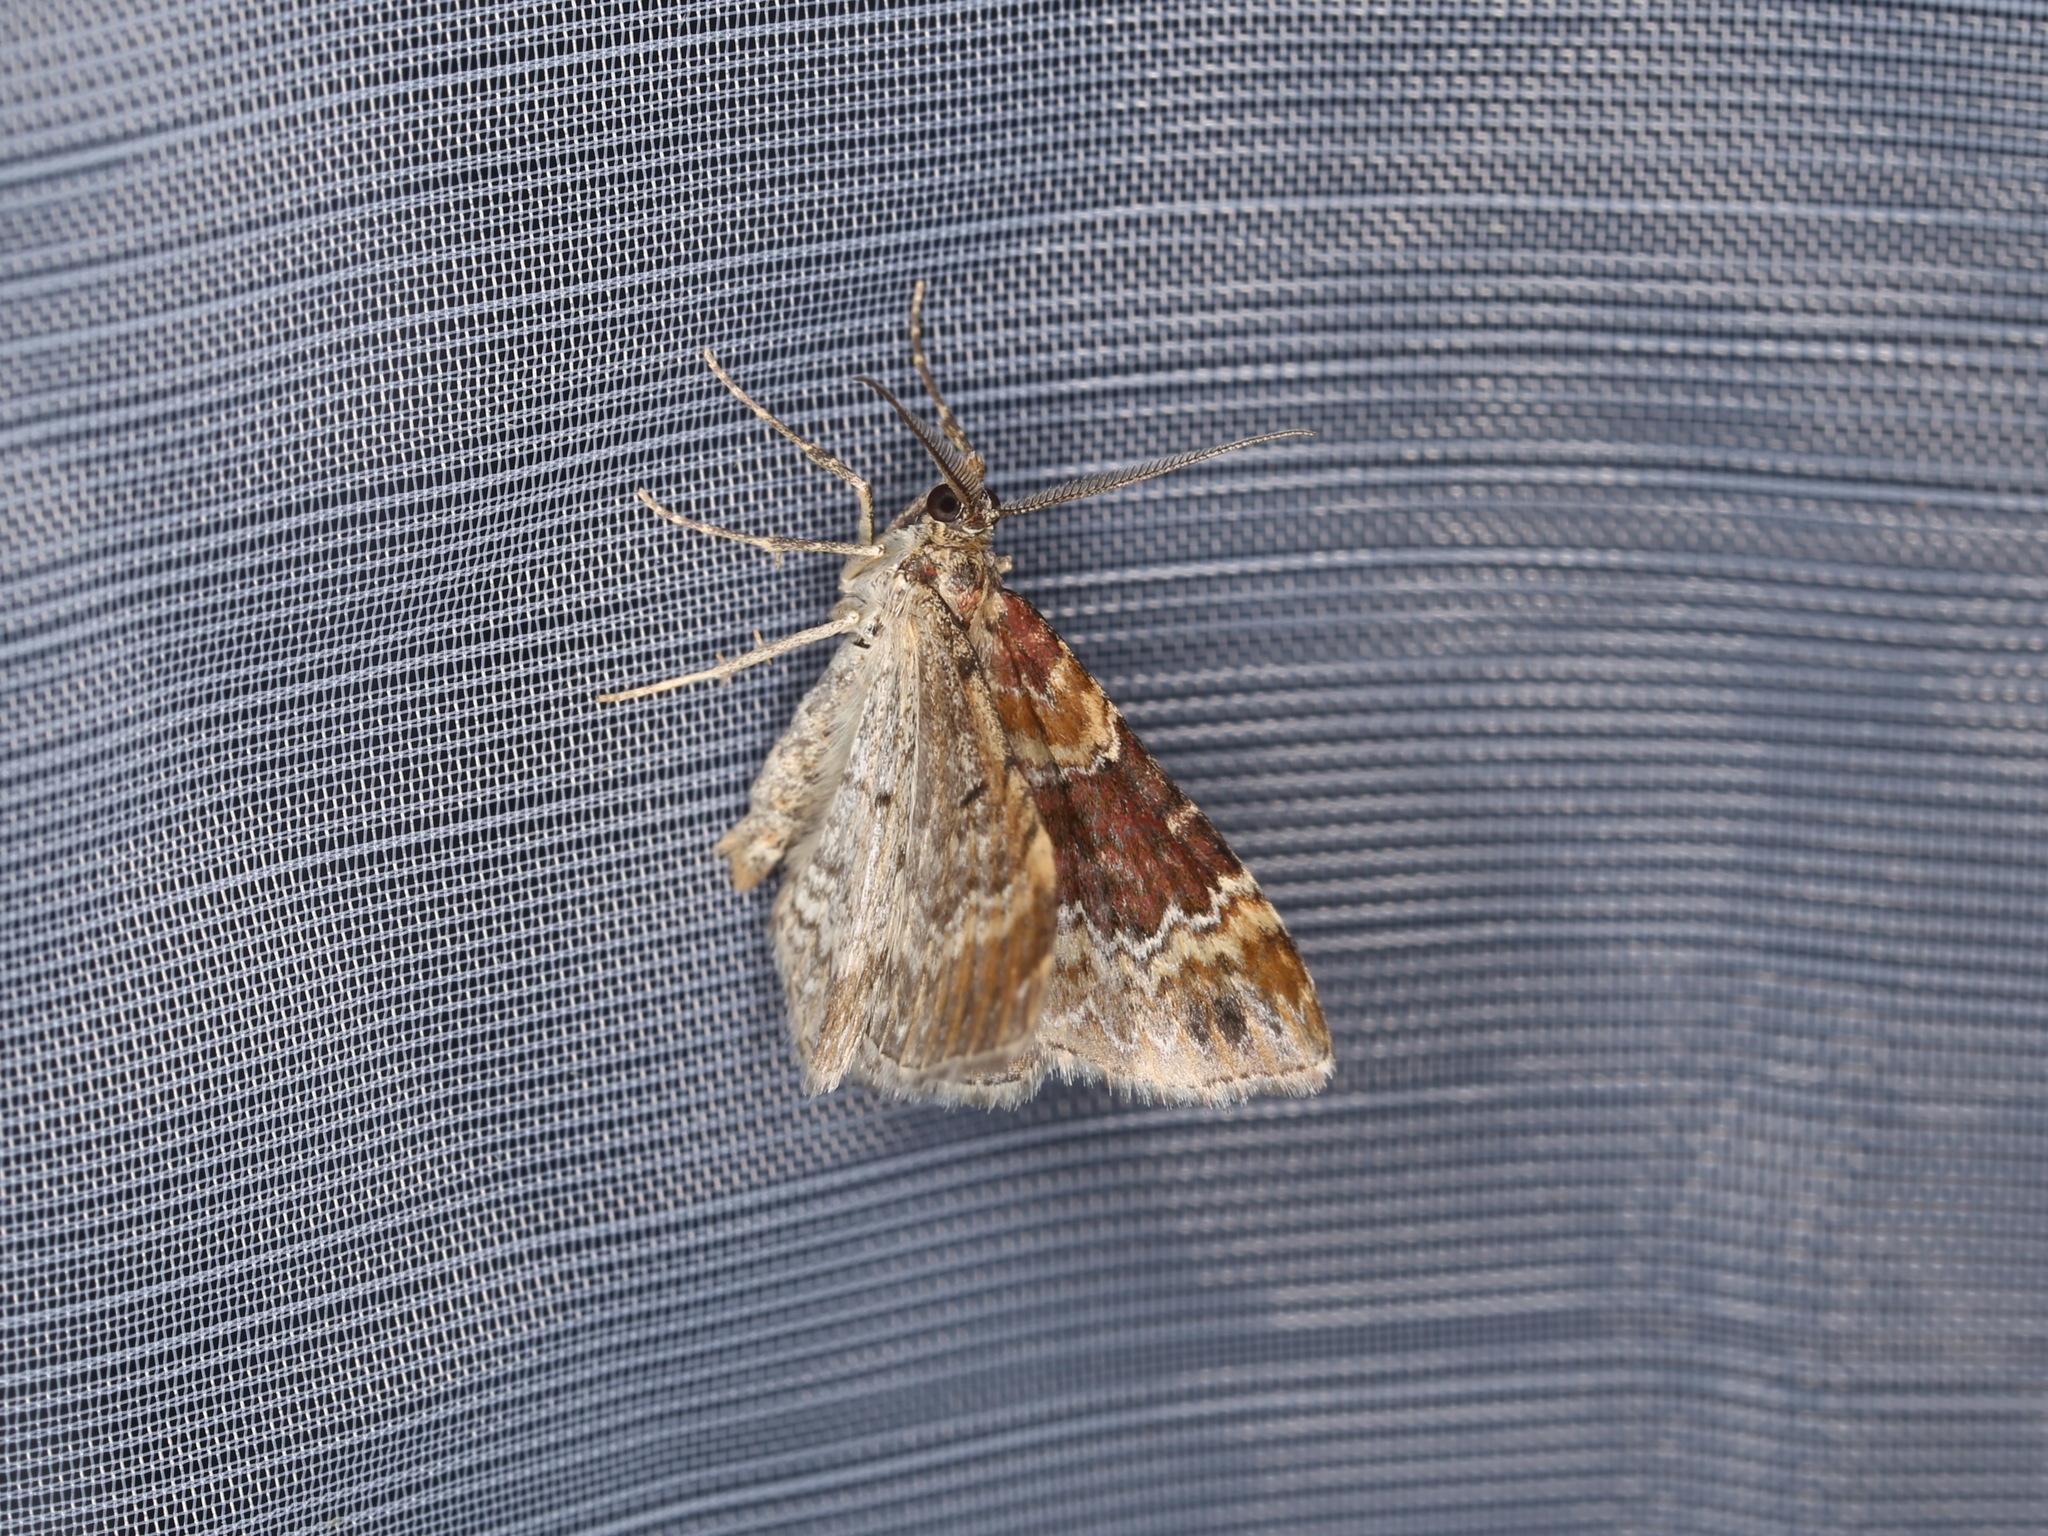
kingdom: Animalia
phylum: Arthropoda
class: Insecta
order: Lepidoptera
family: Geometridae
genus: Xanthorhoe
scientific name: Xanthorhoe spadicearia
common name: Red twin-spot carpet
